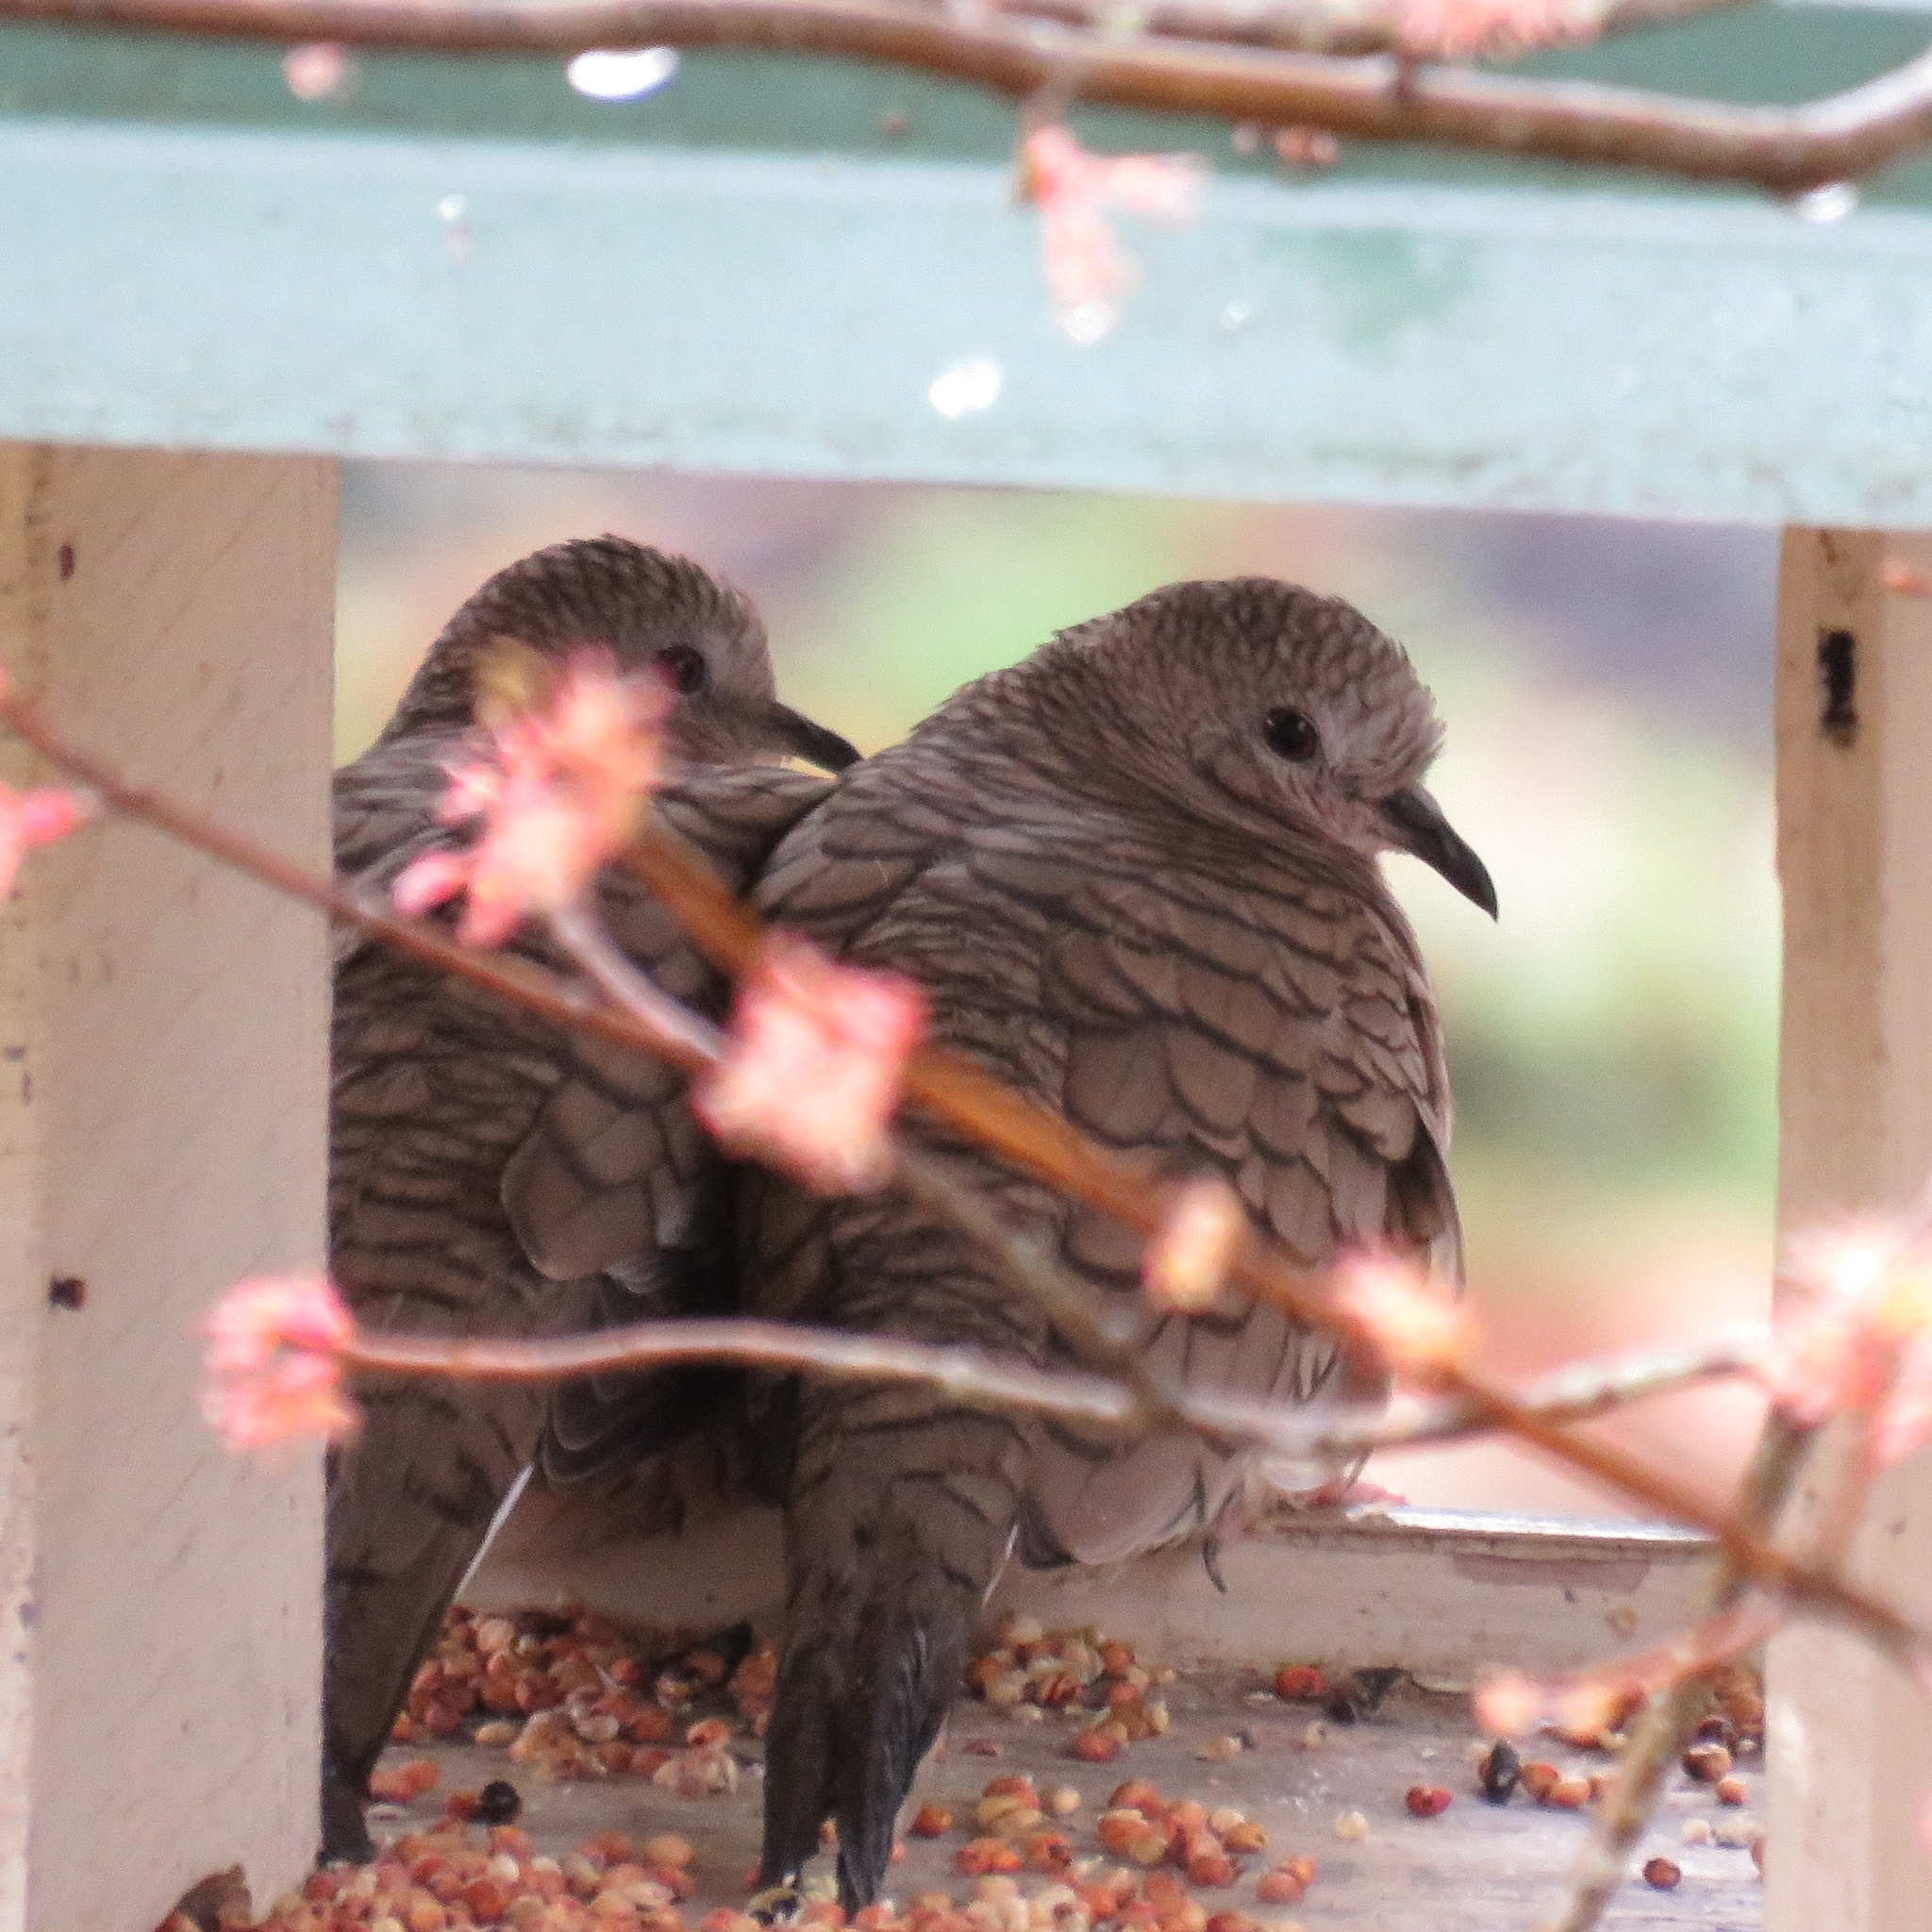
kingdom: Animalia
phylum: Chordata
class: Aves
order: Columbiformes
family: Columbidae
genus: Columbina
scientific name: Columbina inca
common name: Inca dove
